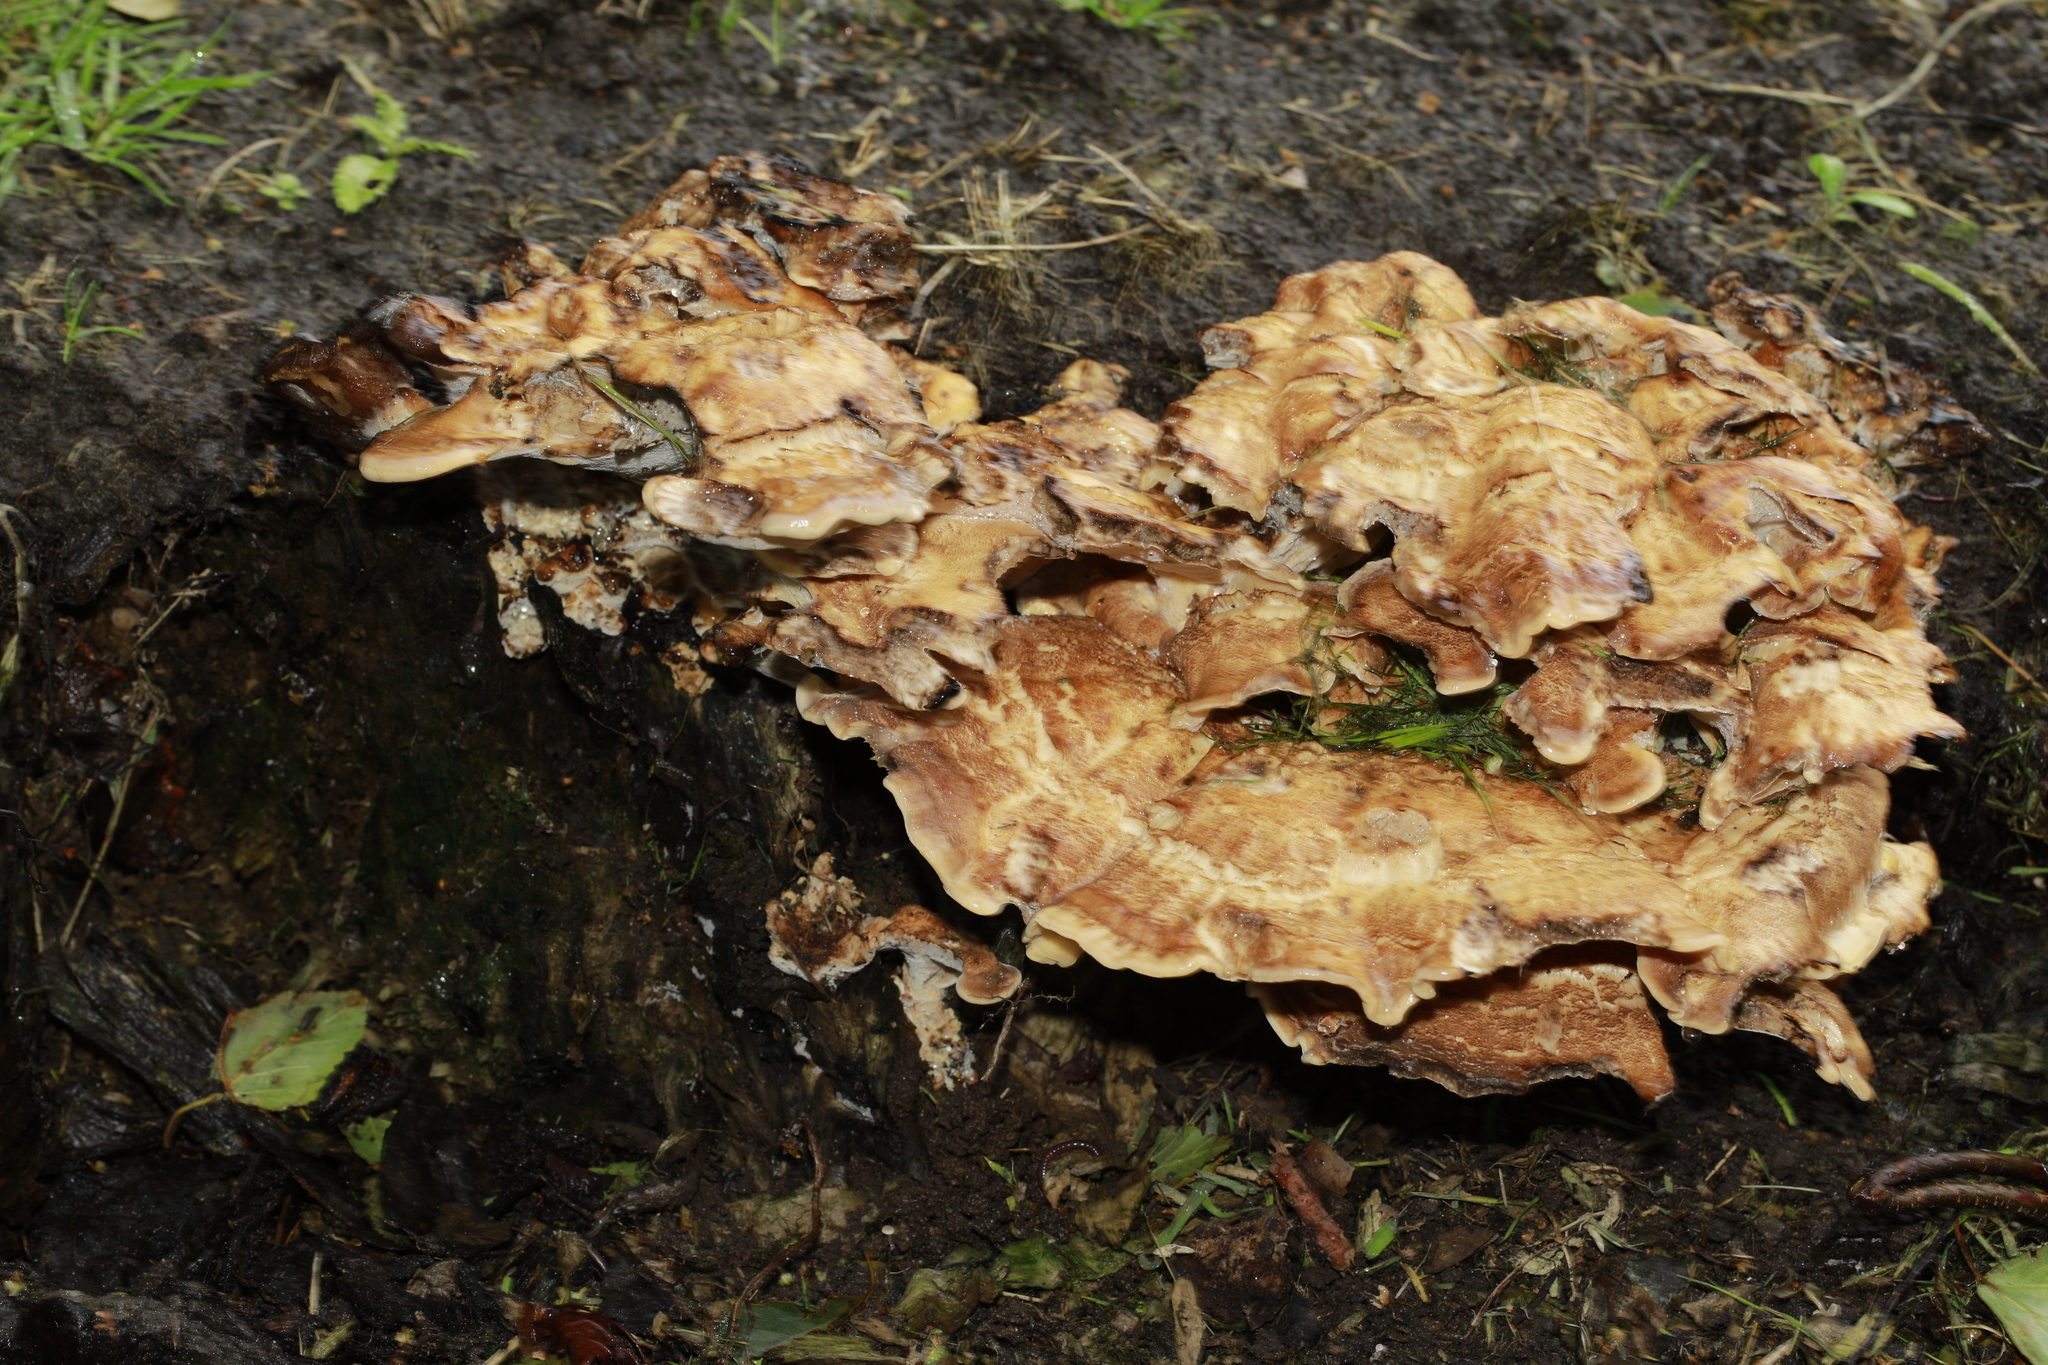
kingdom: Fungi
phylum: Basidiomycota
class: Agaricomycetes
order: Polyporales
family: Meripilaceae
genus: Meripilus
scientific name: Meripilus giganteus
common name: Giant polypore
